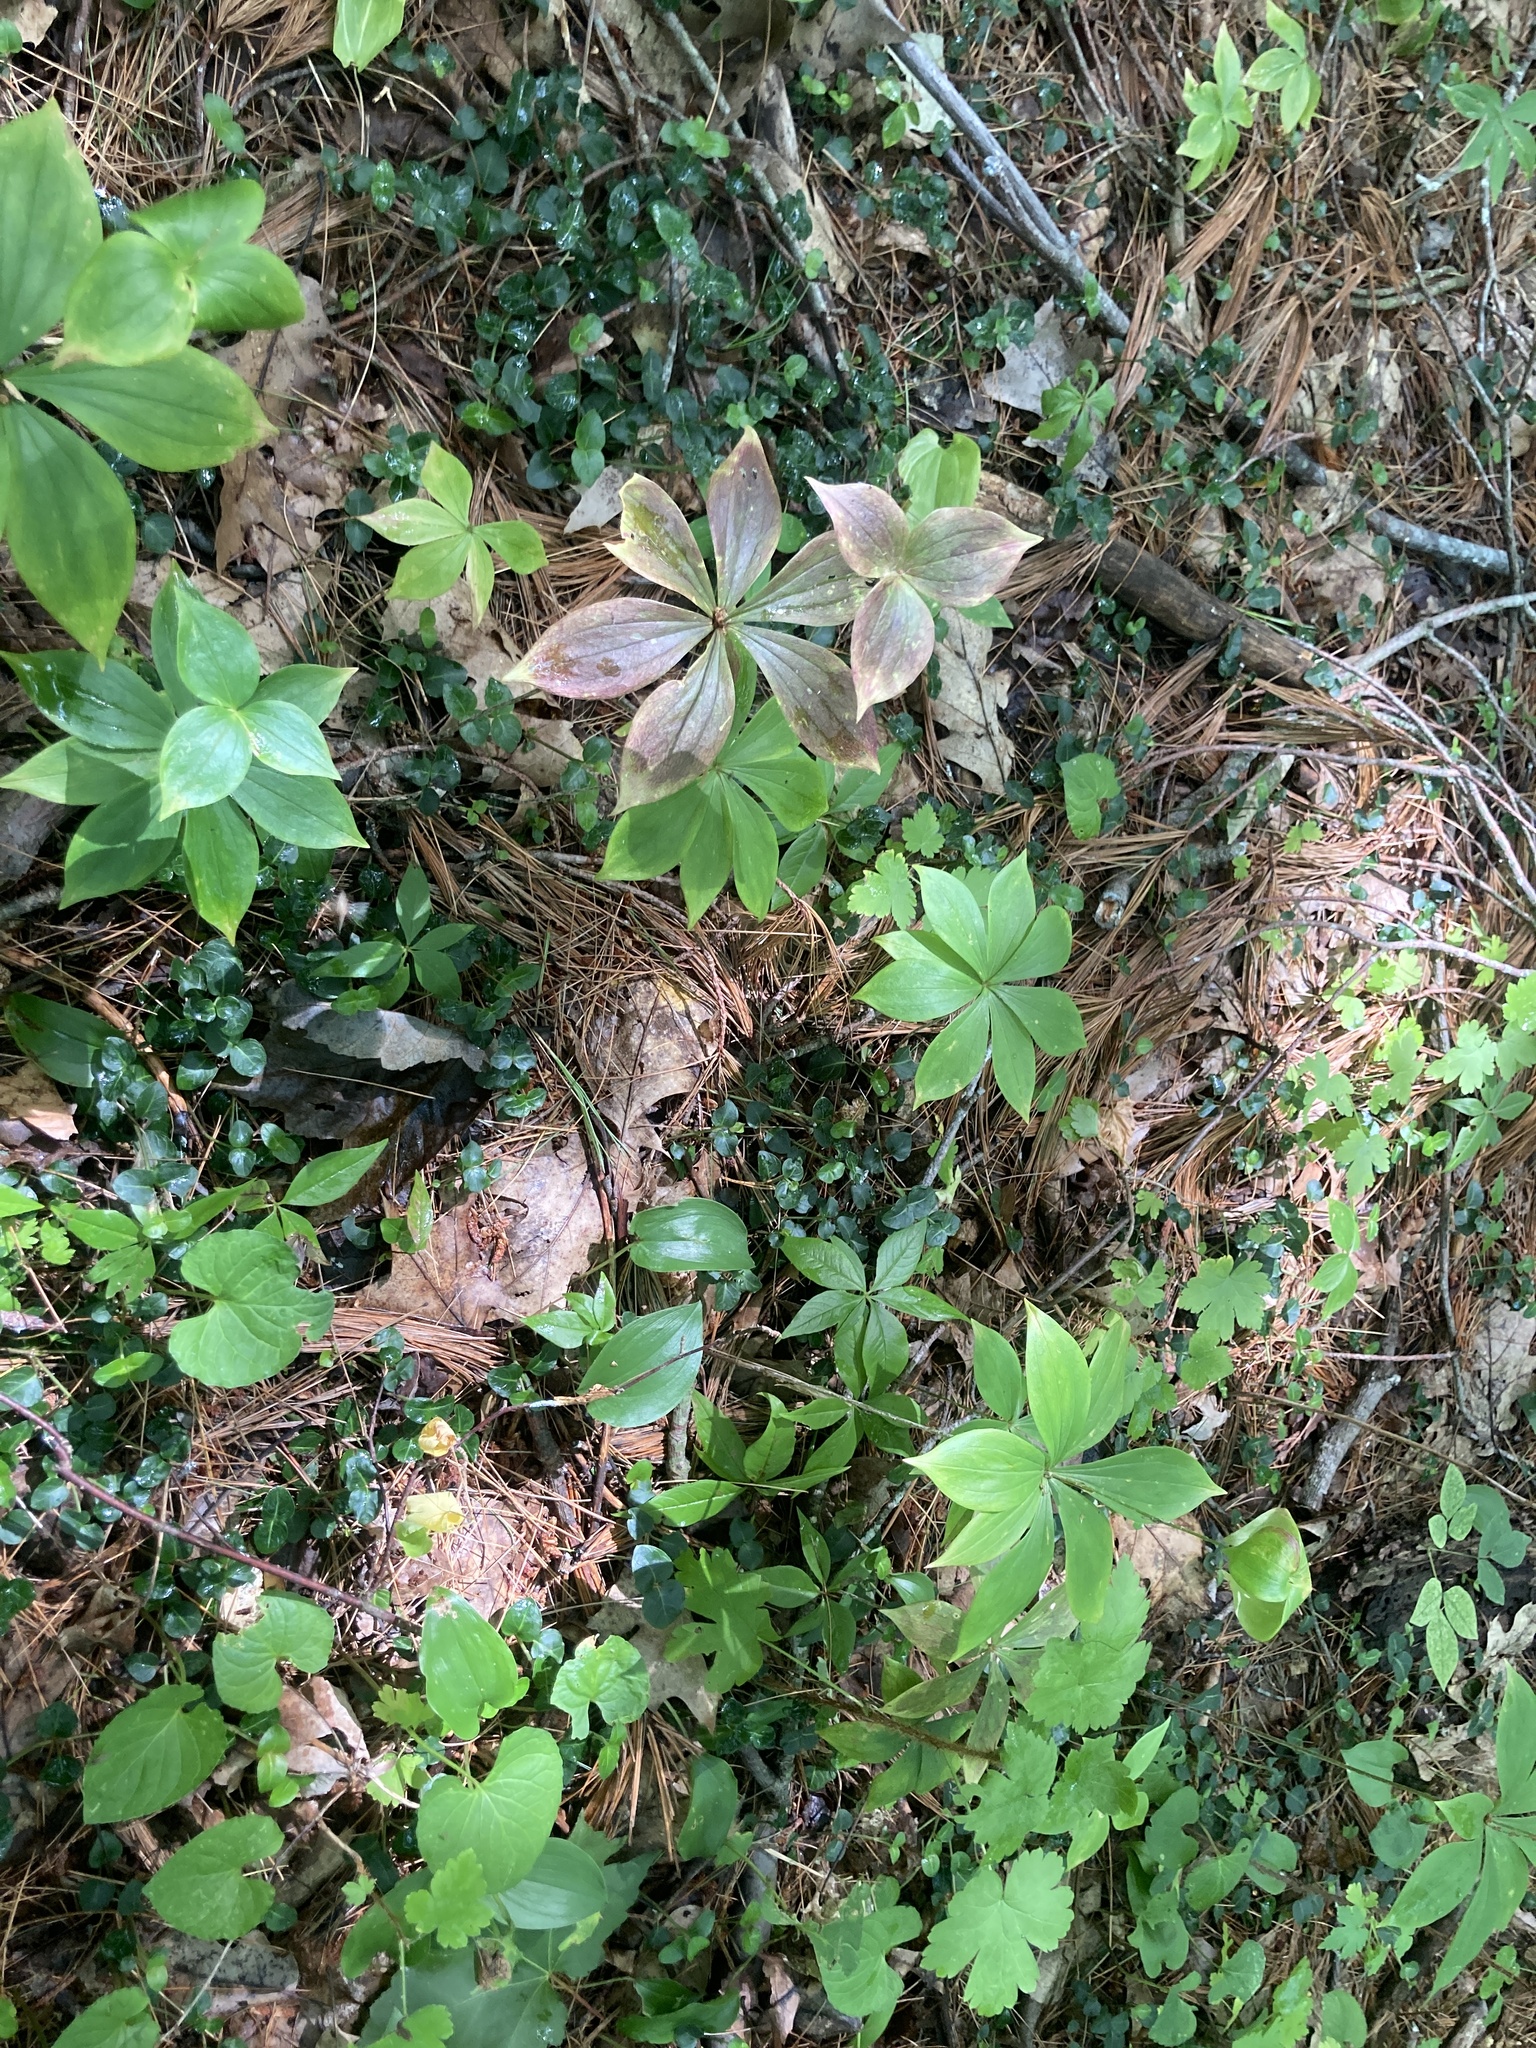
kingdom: Plantae
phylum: Tracheophyta
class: Liliopsida
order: Liliales
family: Liliaceae
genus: Medeola
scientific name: Medeola virginiana
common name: Indian cucumber-root
